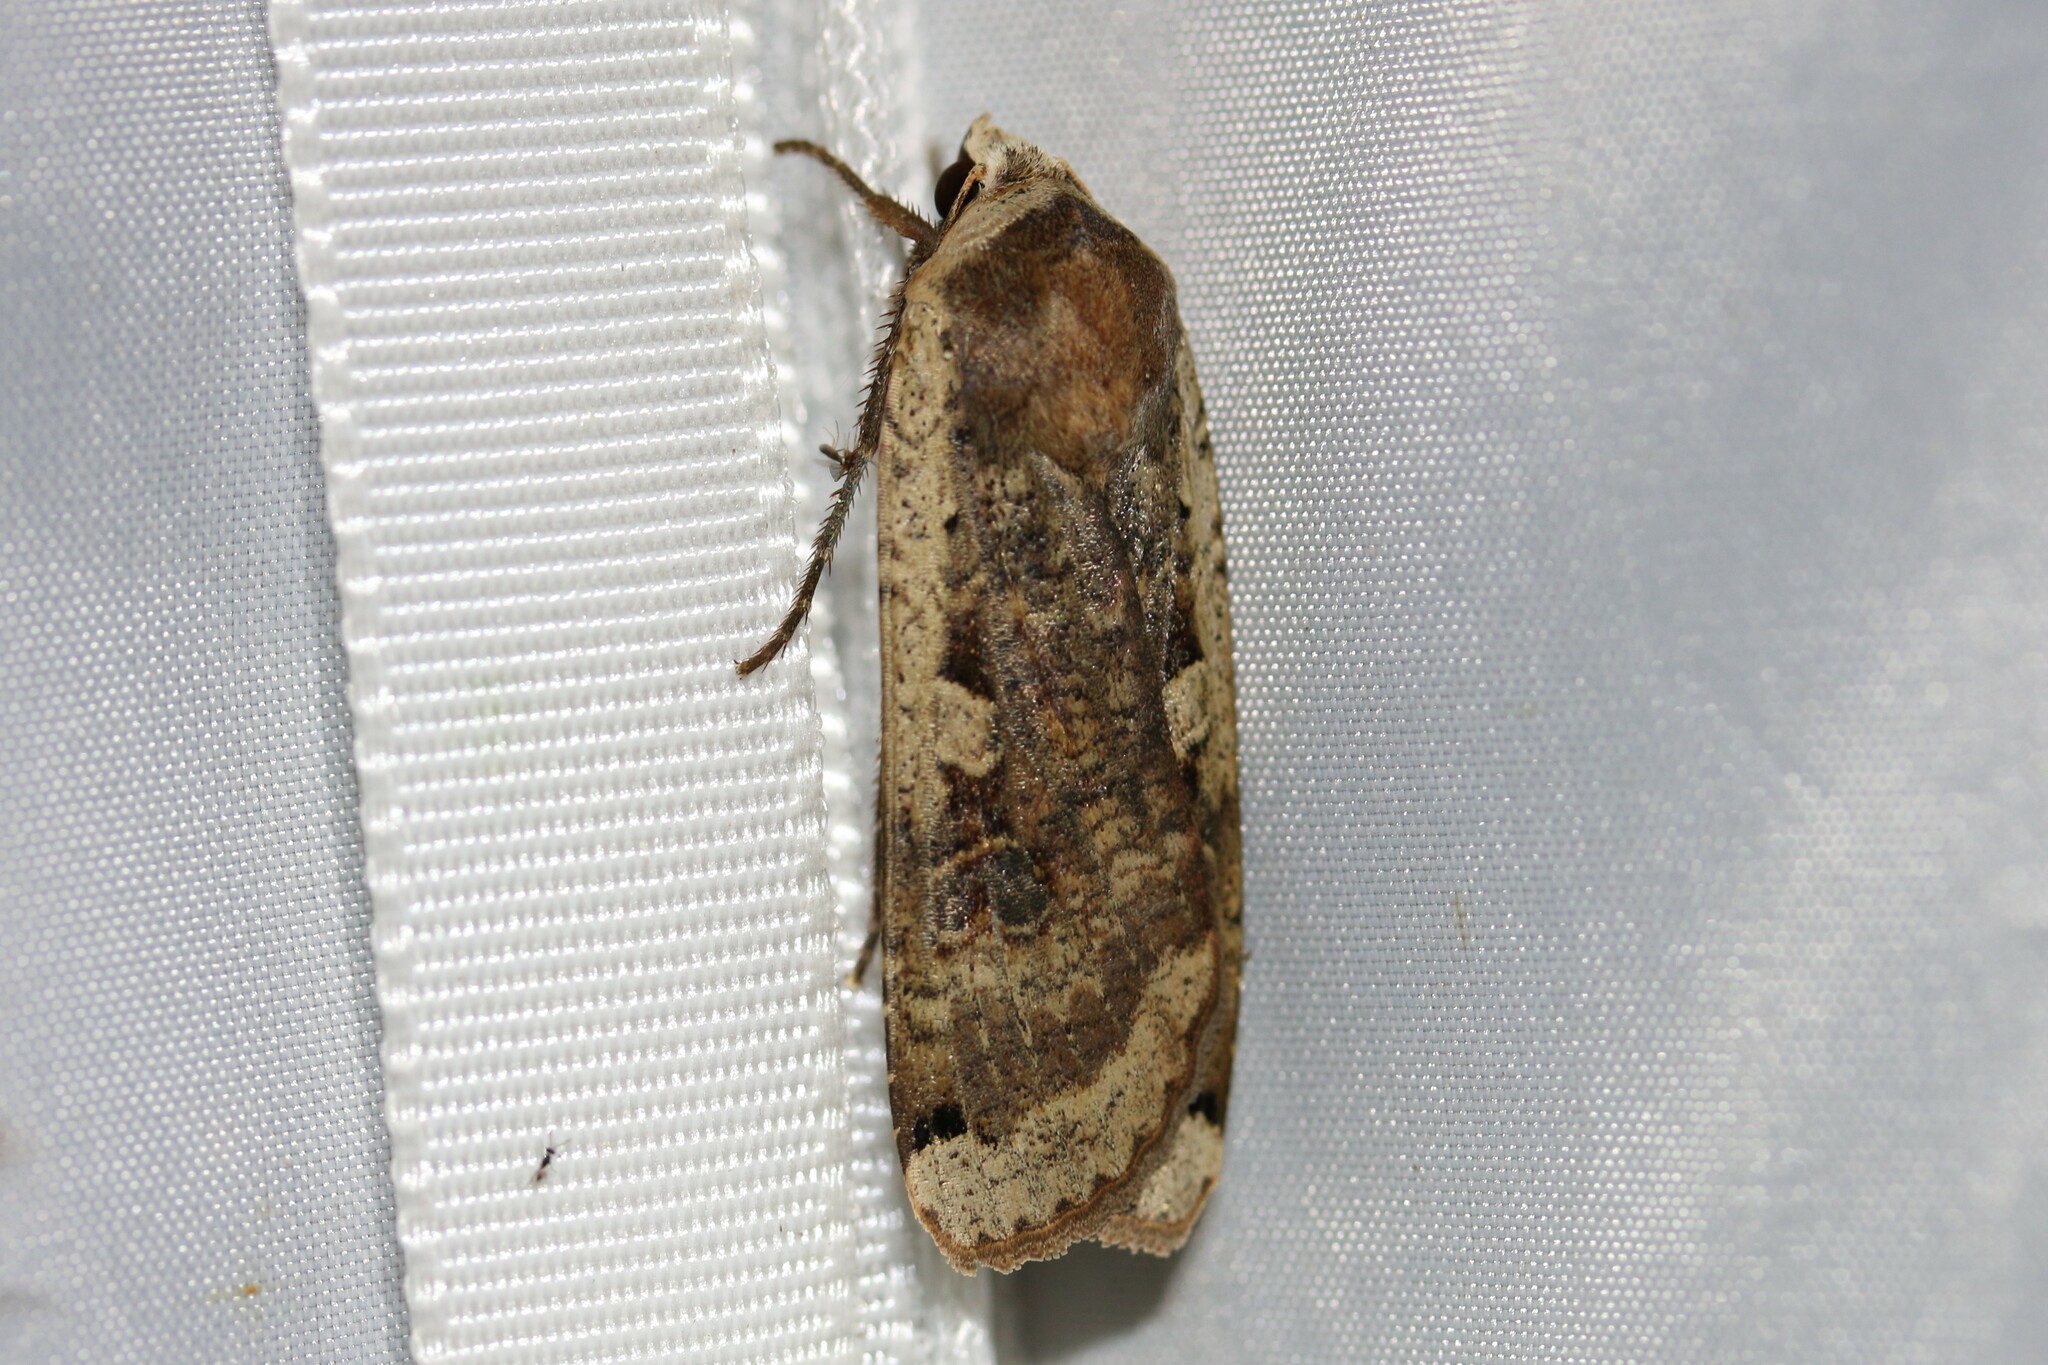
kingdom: Animalia
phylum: Arthropoda
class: Insecta
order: Lepidoptera
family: Noctuidae
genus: Noctua
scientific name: Noctua pronuba
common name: Large yellow underwing
